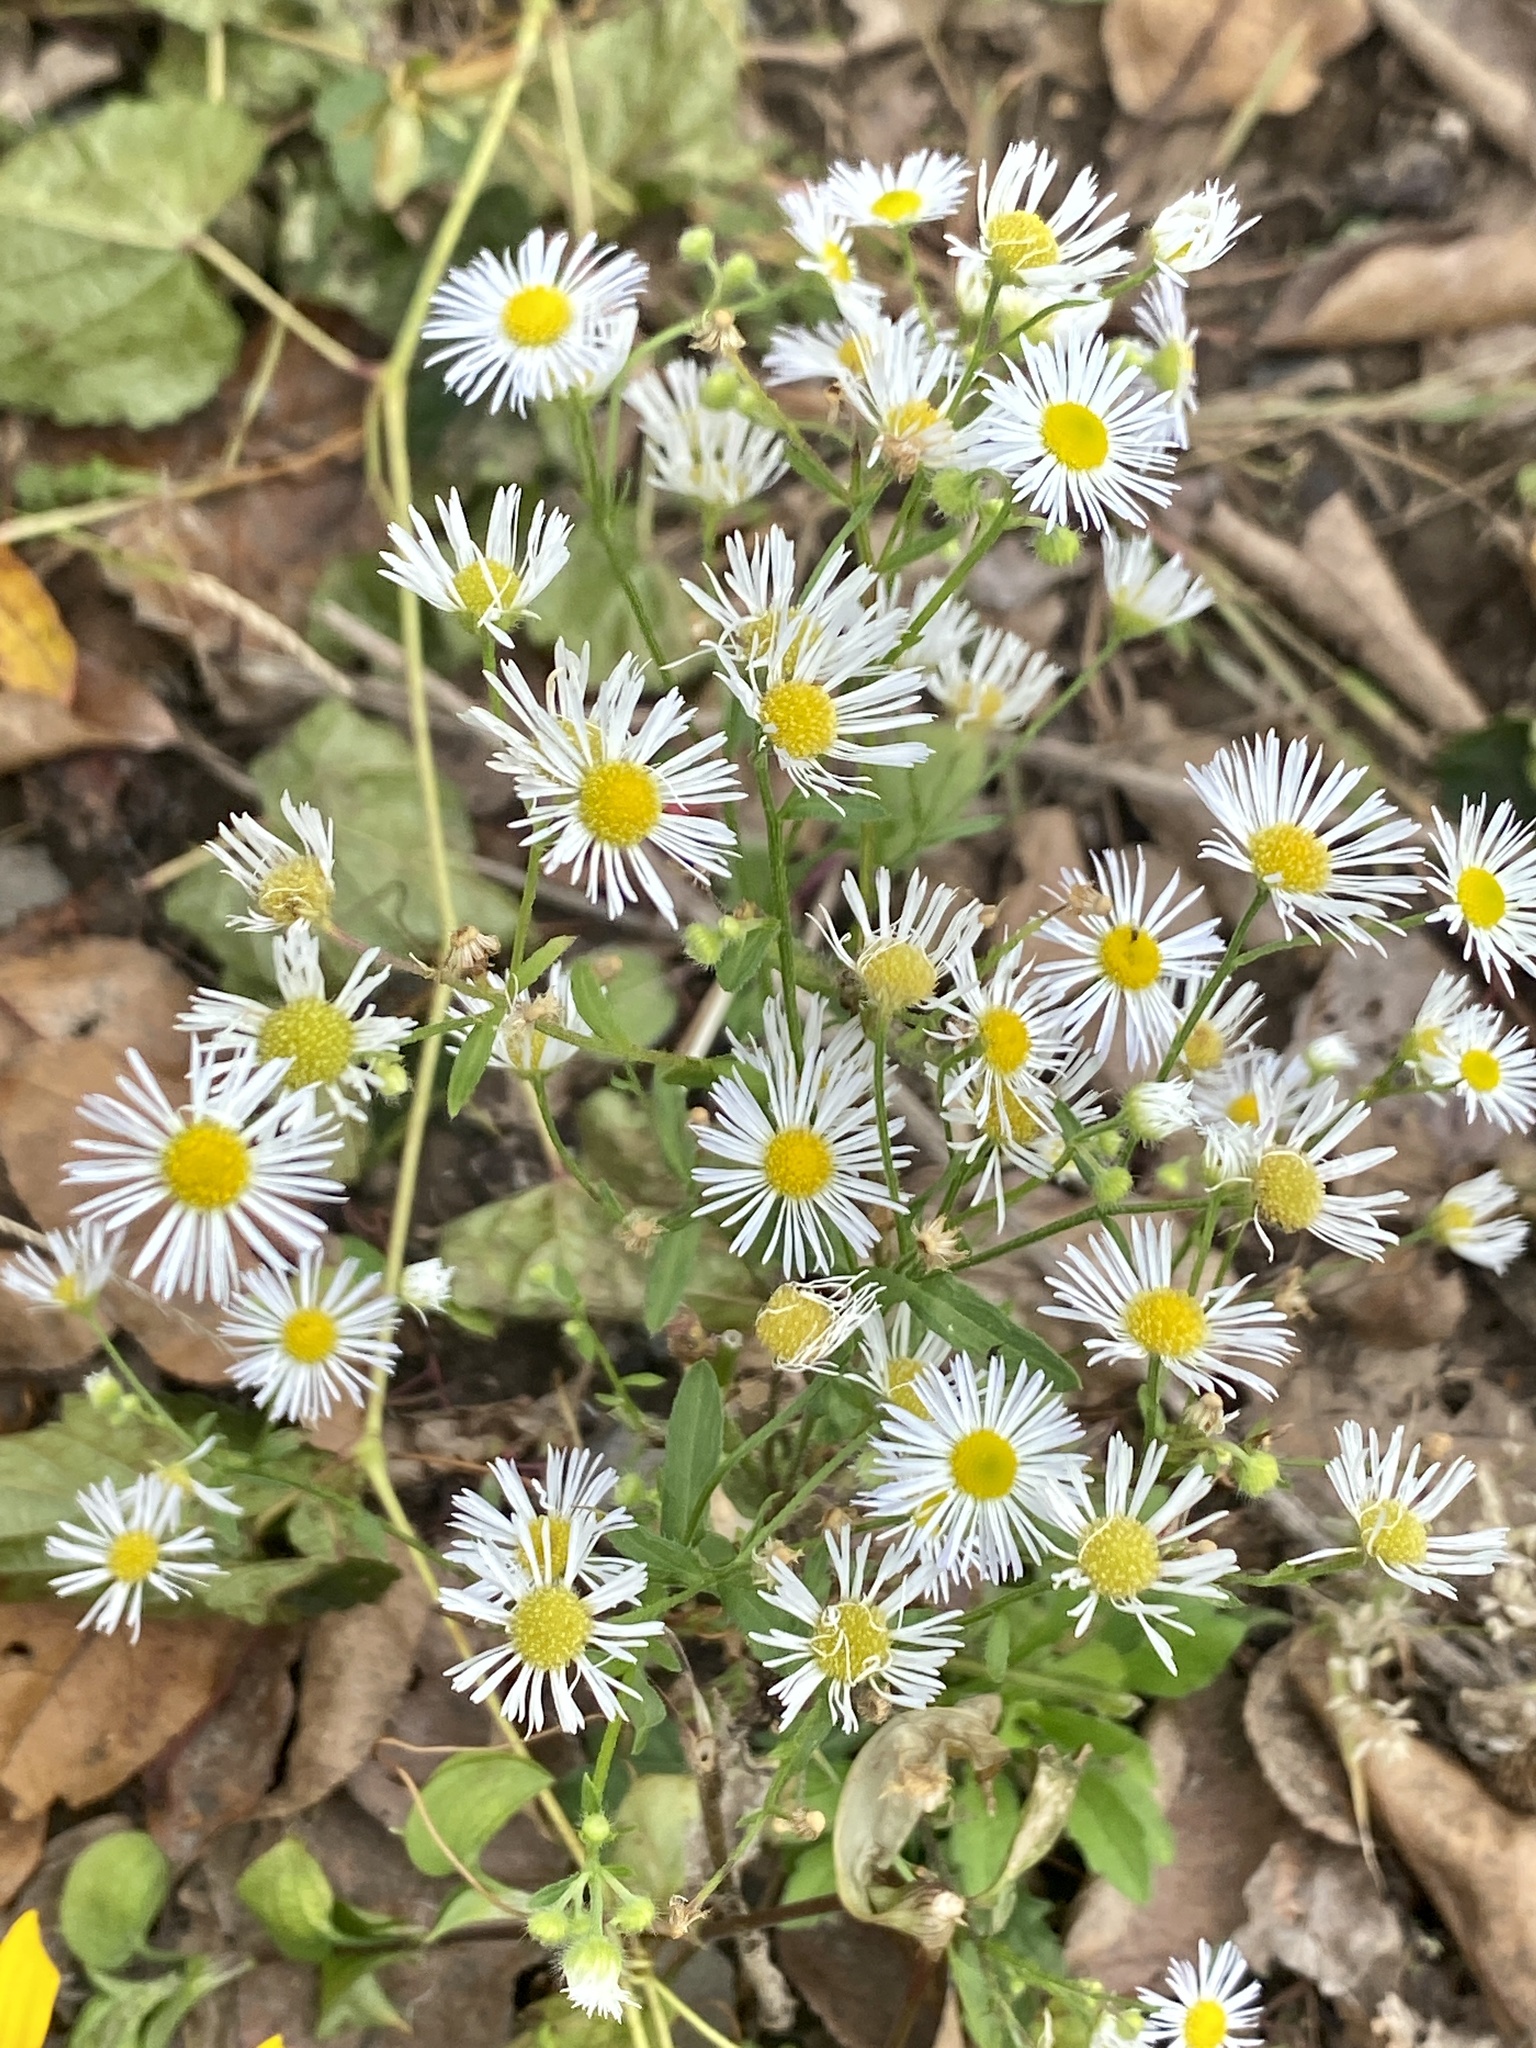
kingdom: Plantae
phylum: Tracheophyta
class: Magnoliopsida
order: Asterales
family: Asteraceae
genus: Erigeron
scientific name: Erigeron annuus
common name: Tall fleabane
